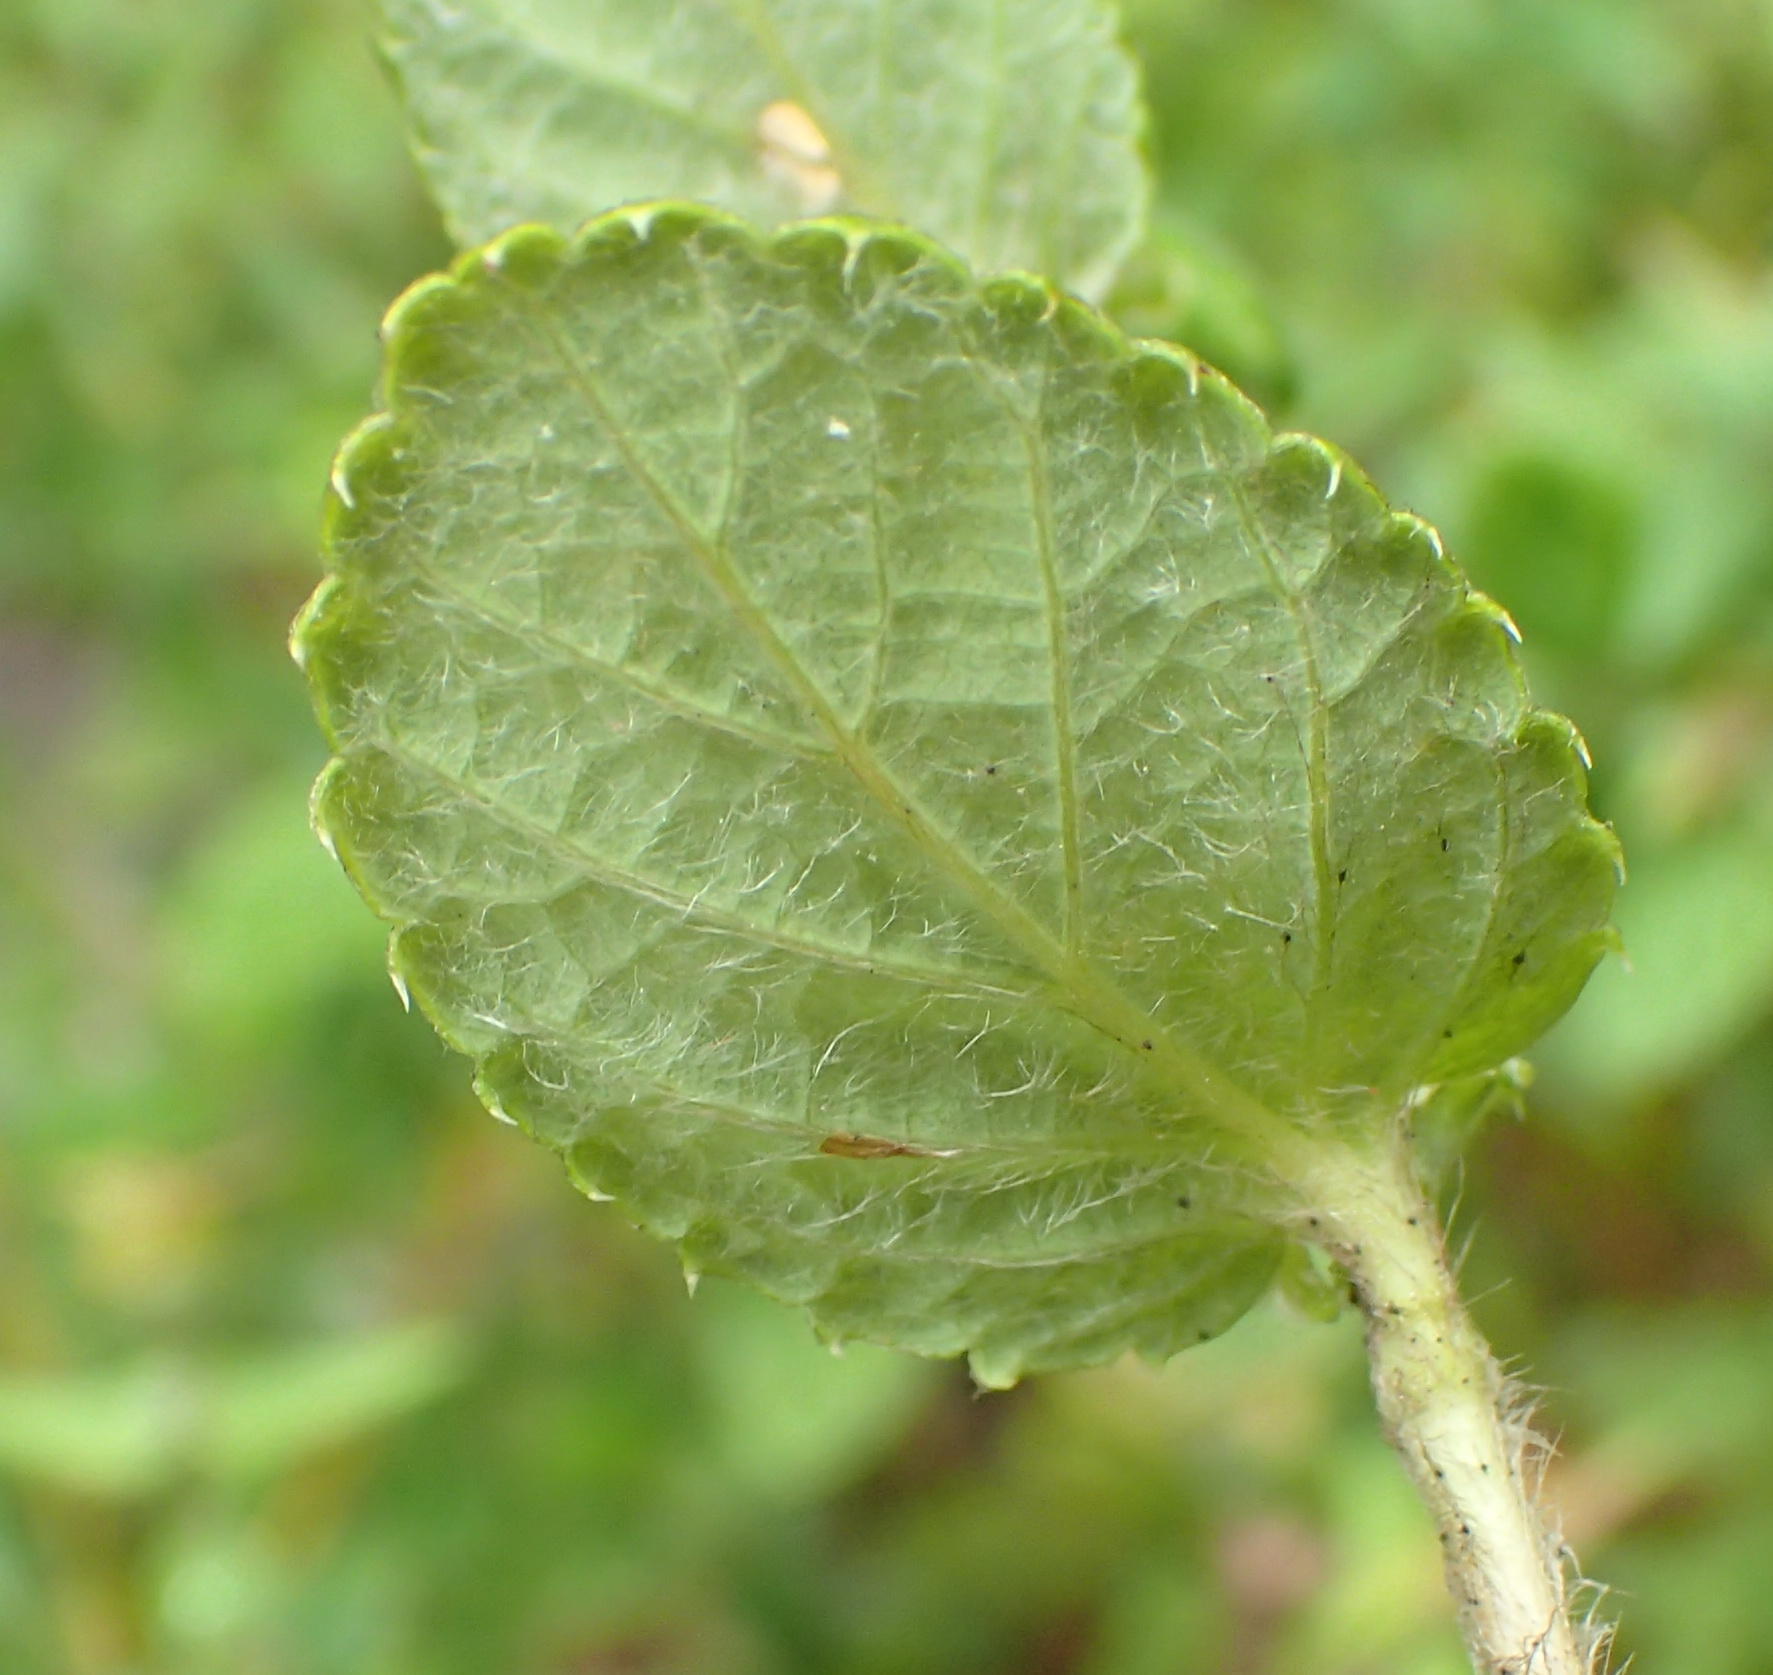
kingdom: Plantae
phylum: Tracheophyta
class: Magnoliopsida
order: Rosales
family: Rosaceae
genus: Cliffortia
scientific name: Cliffortia odorata
